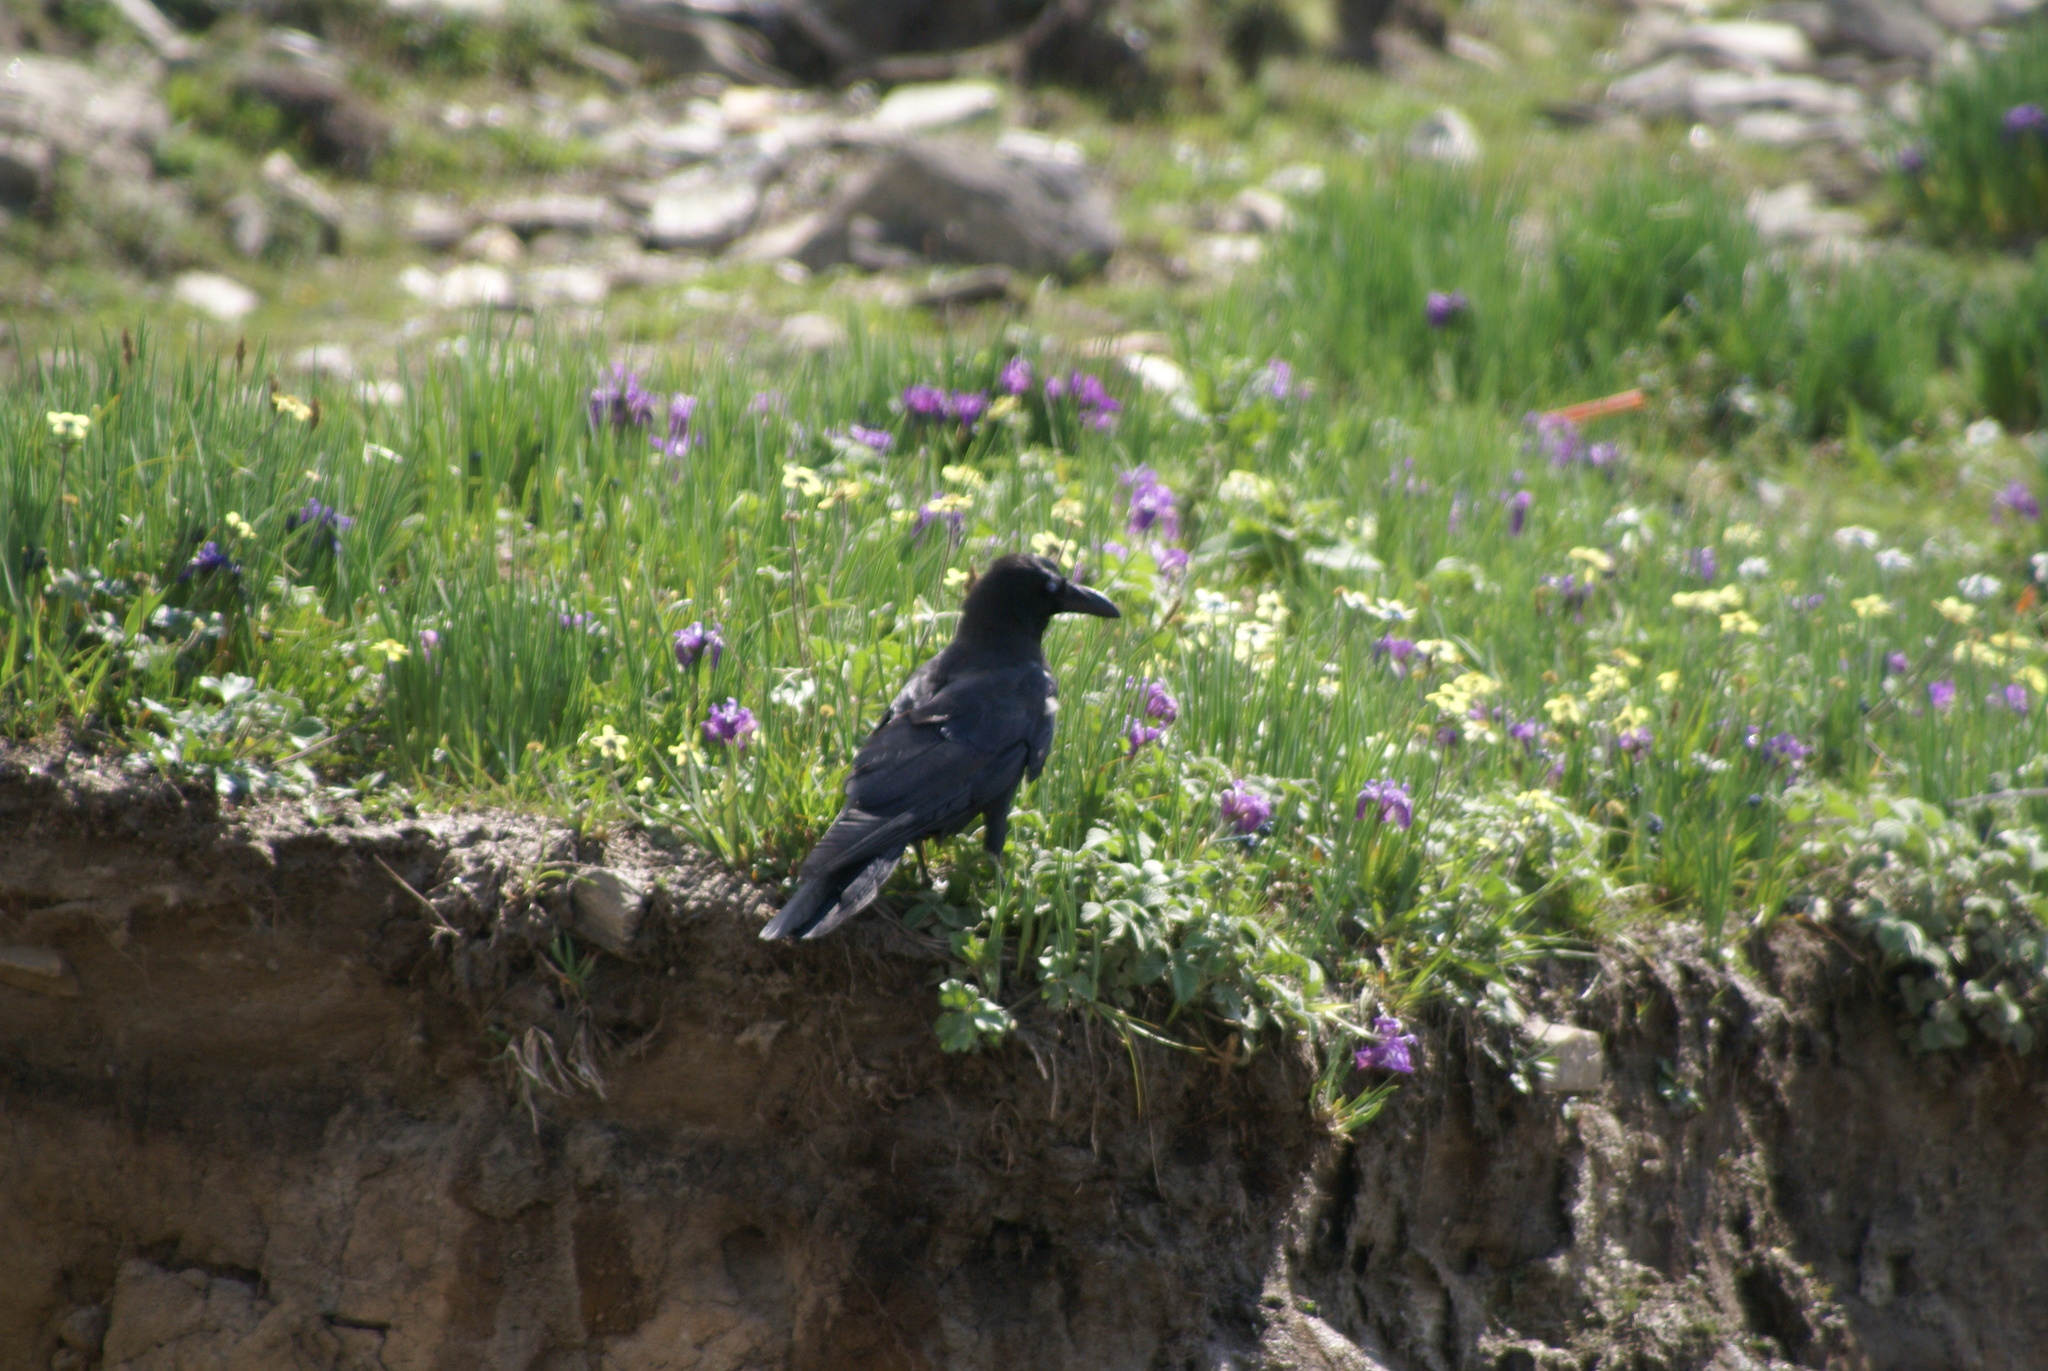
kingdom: Animalia
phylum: Chordata
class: Aves
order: Passeriformes
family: Corvidae
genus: Corvus
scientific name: Corvus macrorhynchos
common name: Large-billed crow
